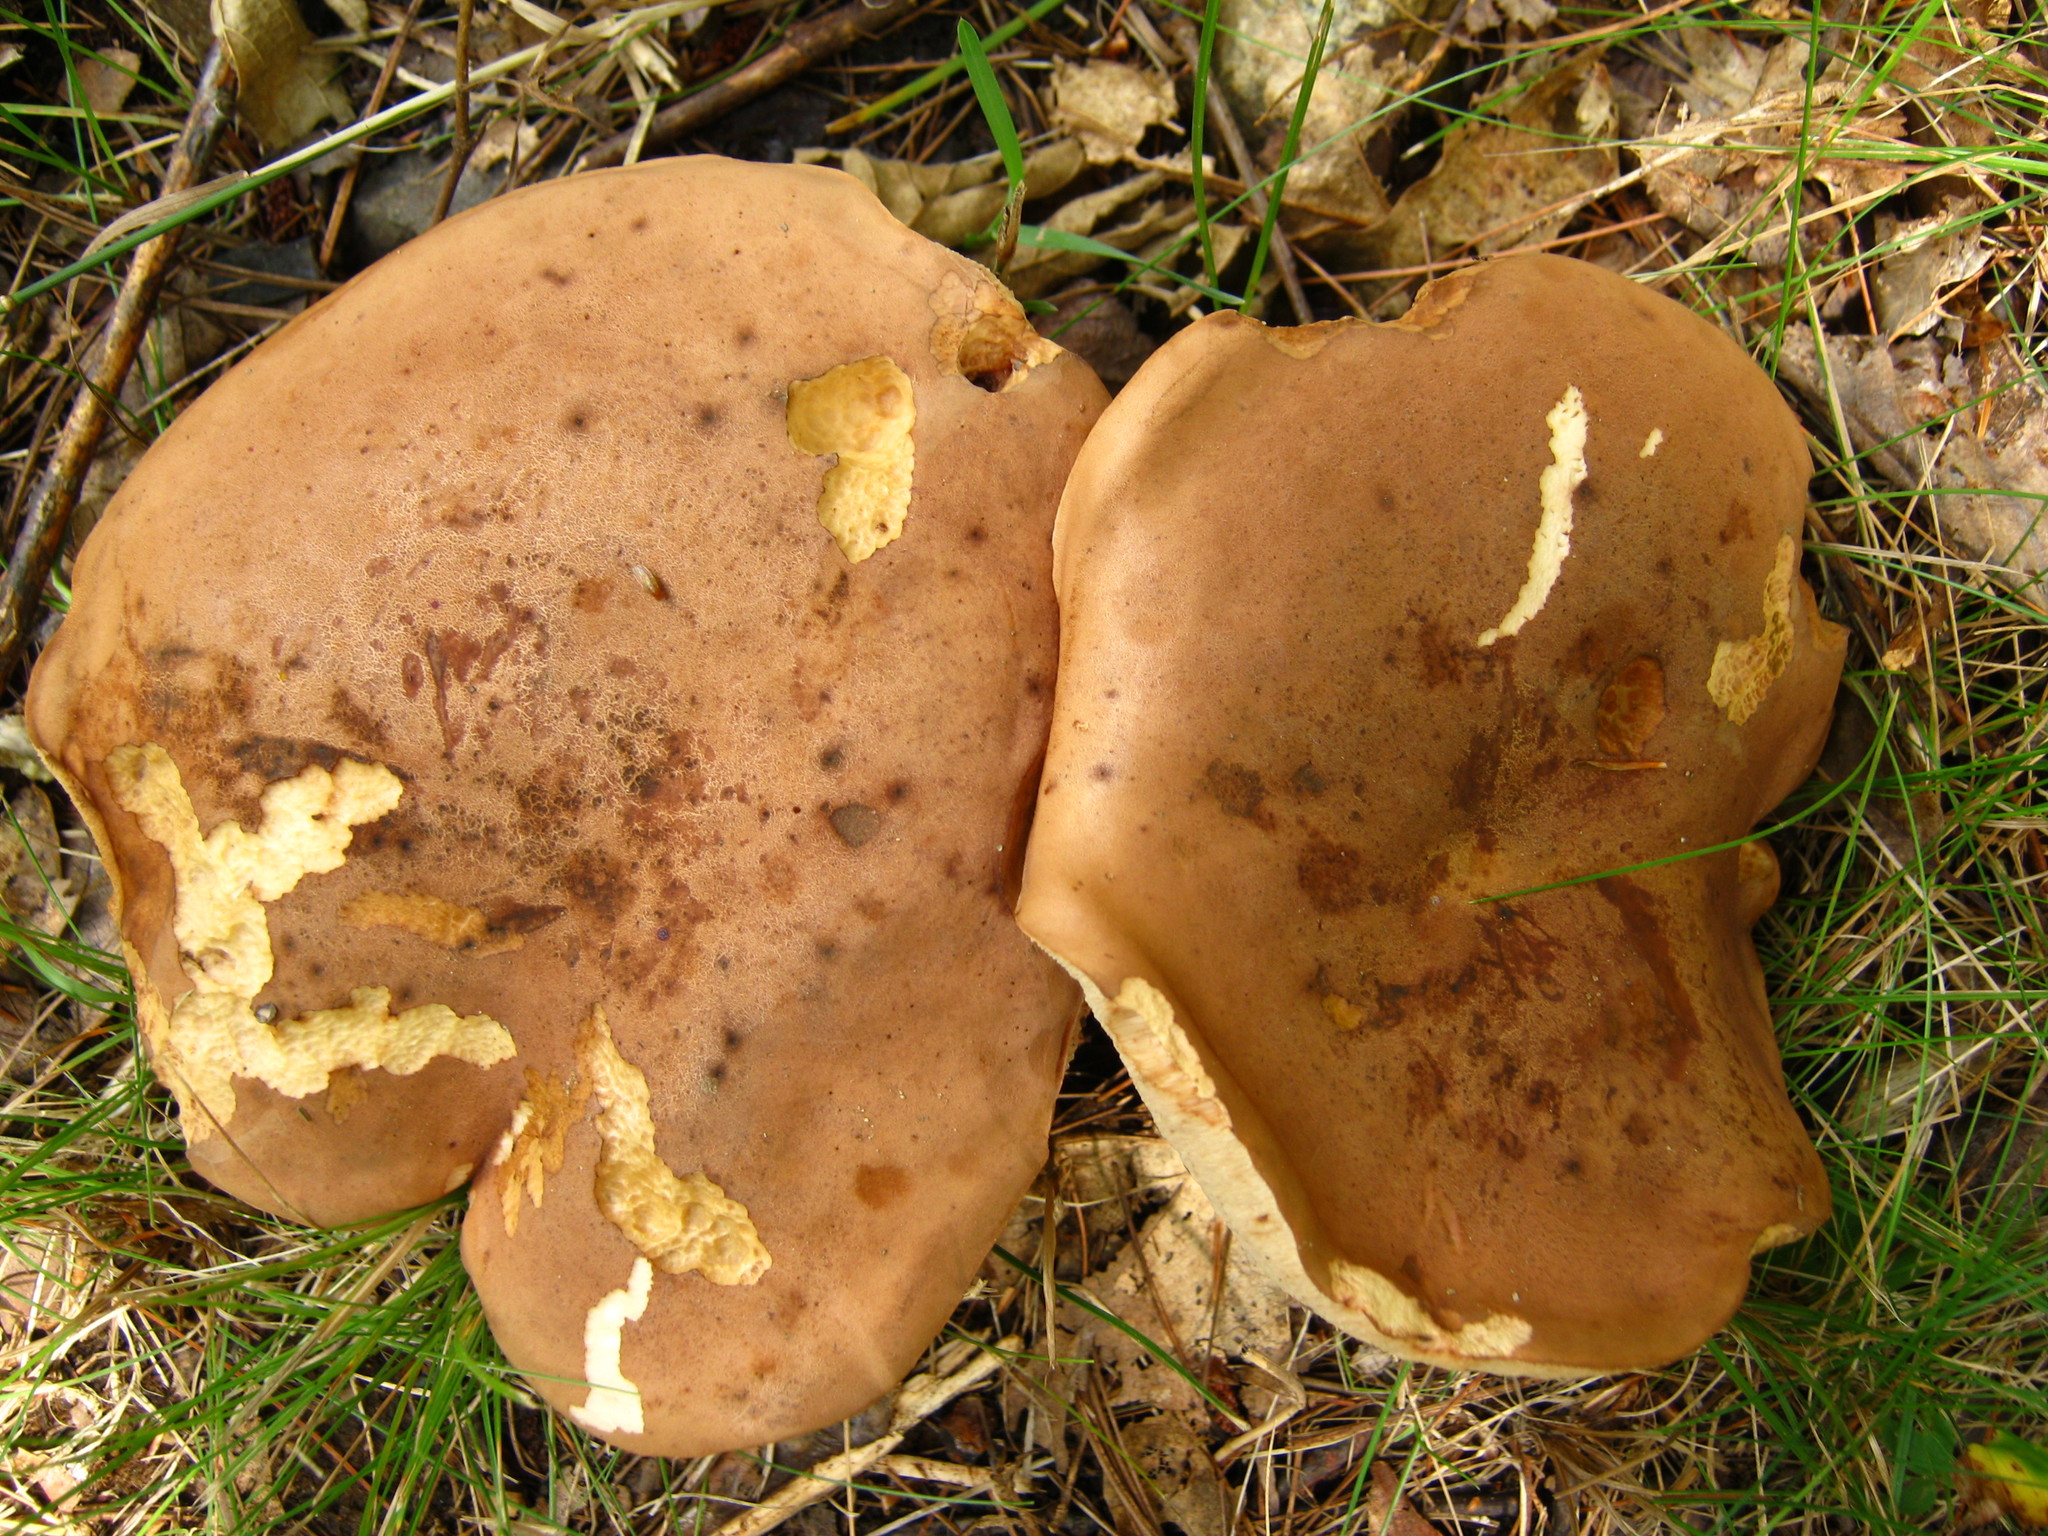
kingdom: Fungi
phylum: Basidiomycota
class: Agaricomycetes
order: Boletales
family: Boletaceae
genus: Tylopilus
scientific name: Tylopilus ferrugineus
